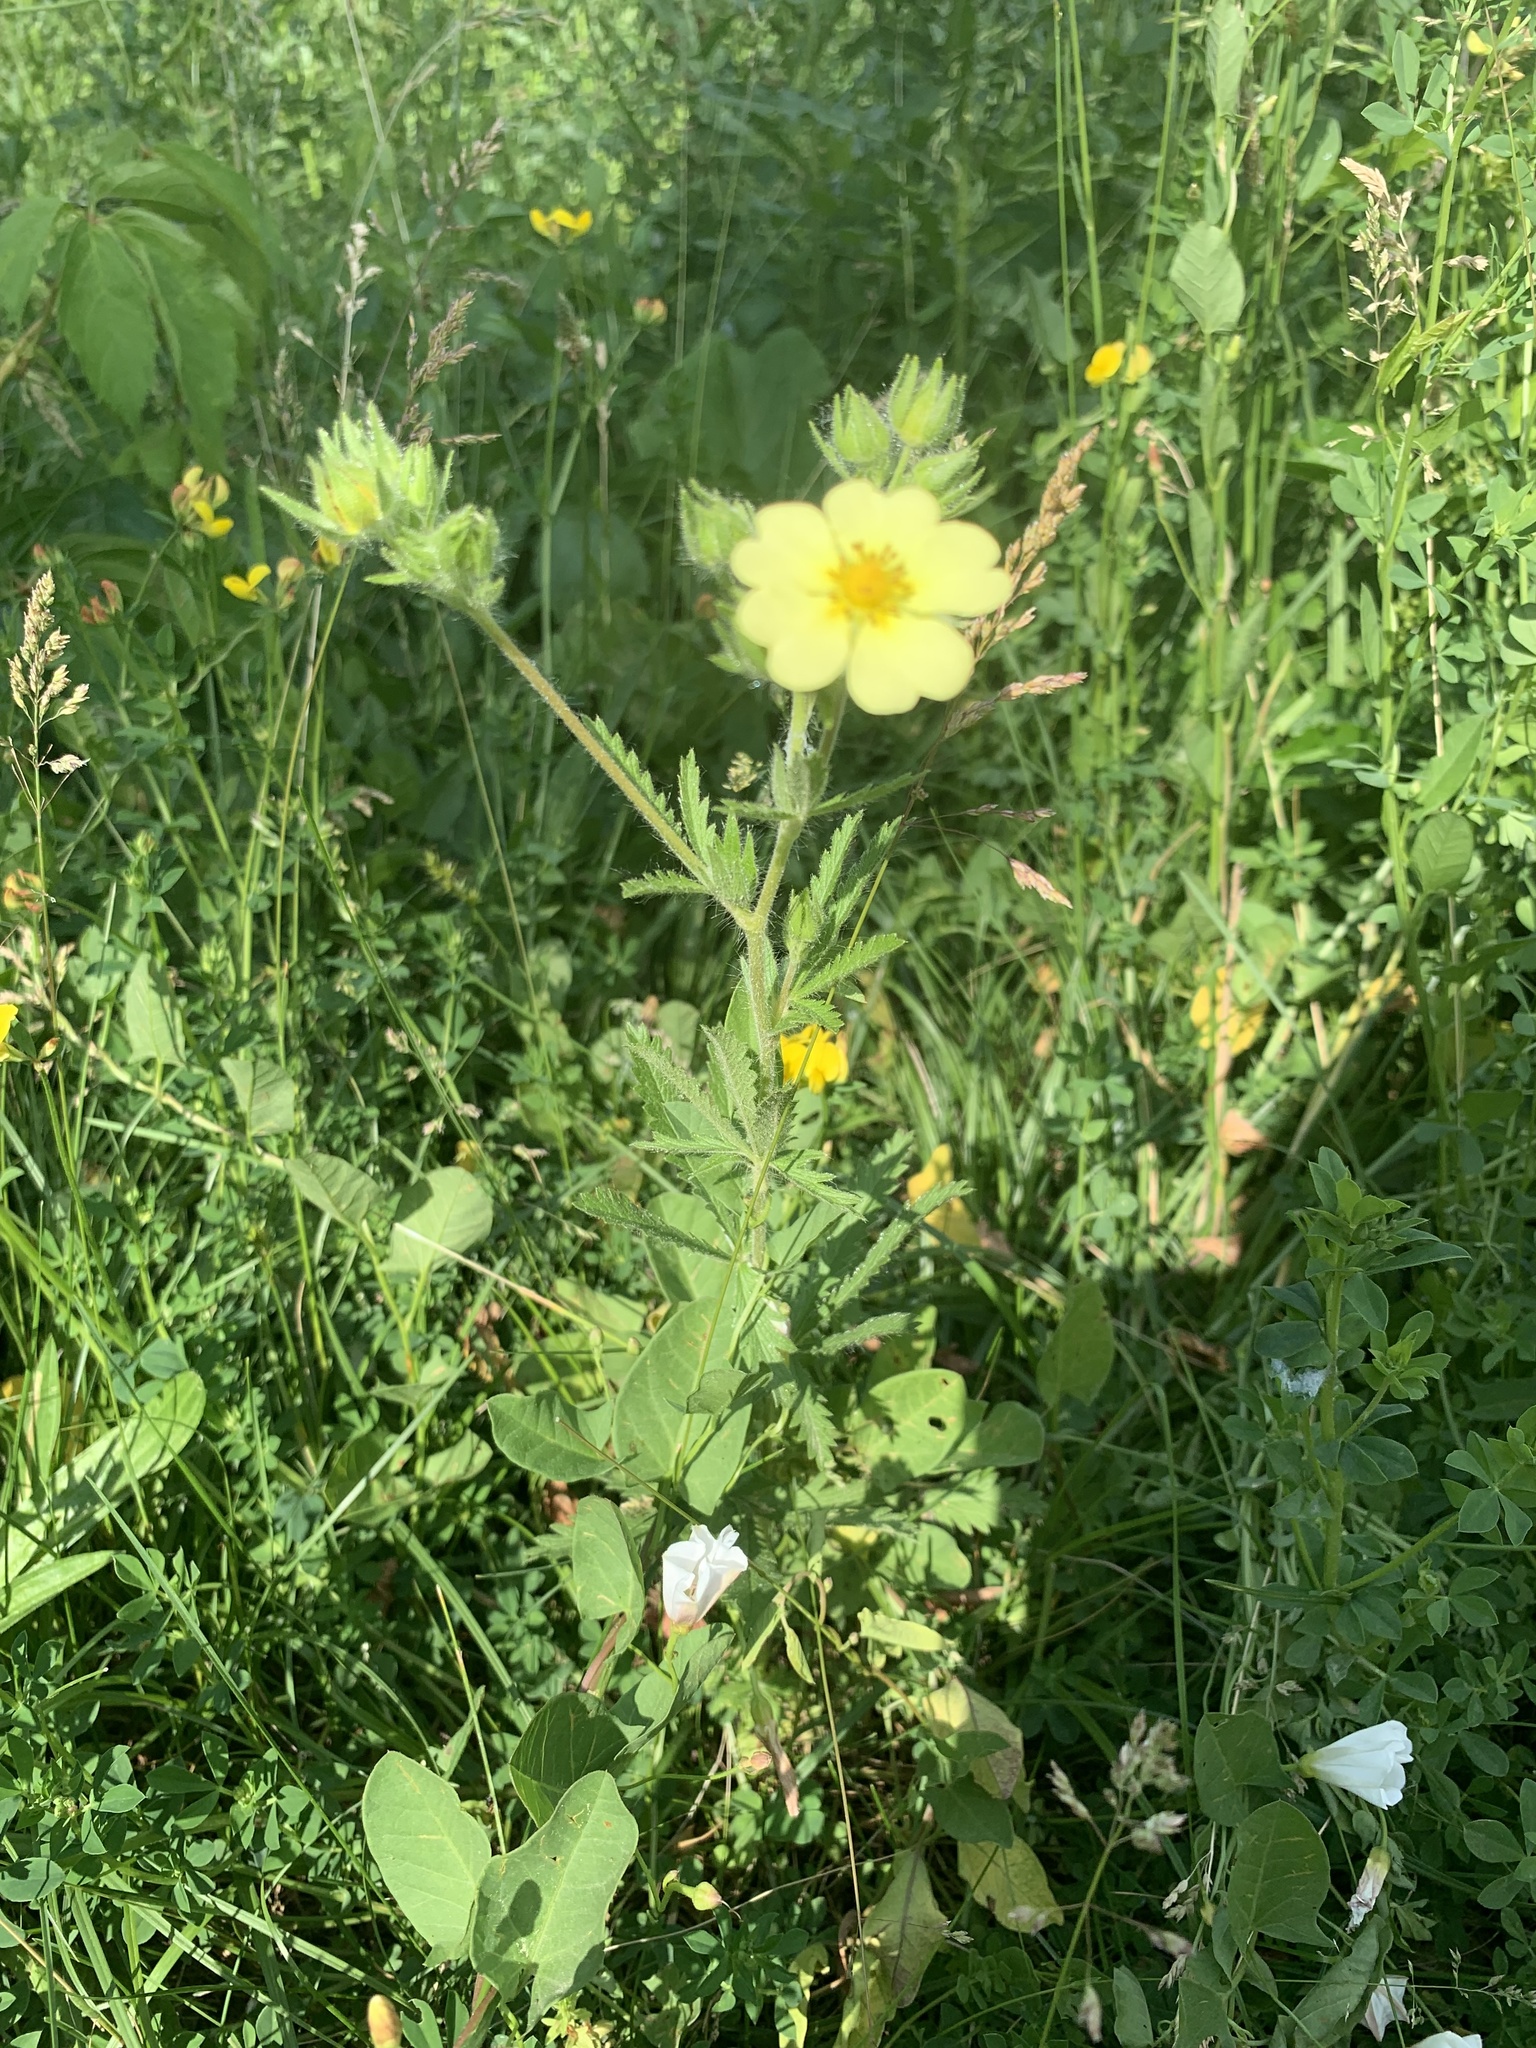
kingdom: Plantae
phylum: Tracheophyta
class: Magnoliopsida
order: Rosales
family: Rosaceae
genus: Potentilla
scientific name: Potentilla recta
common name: Sulphur cinquefoil
